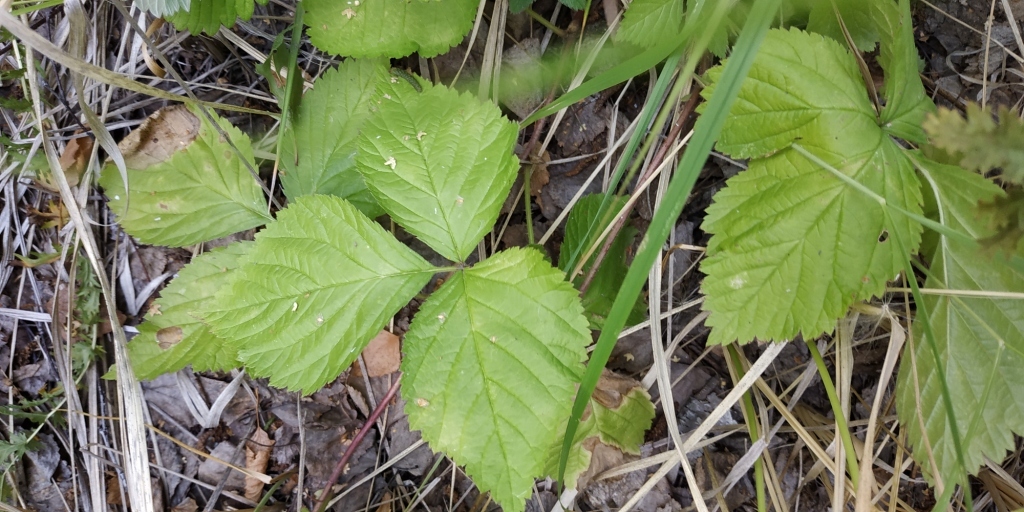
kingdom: Plantae
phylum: Tracheophyta
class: Magnoliopsida
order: Rosales
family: Rosaceae
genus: Rubus
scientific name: Rubus saxatilis
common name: Stone bramble
